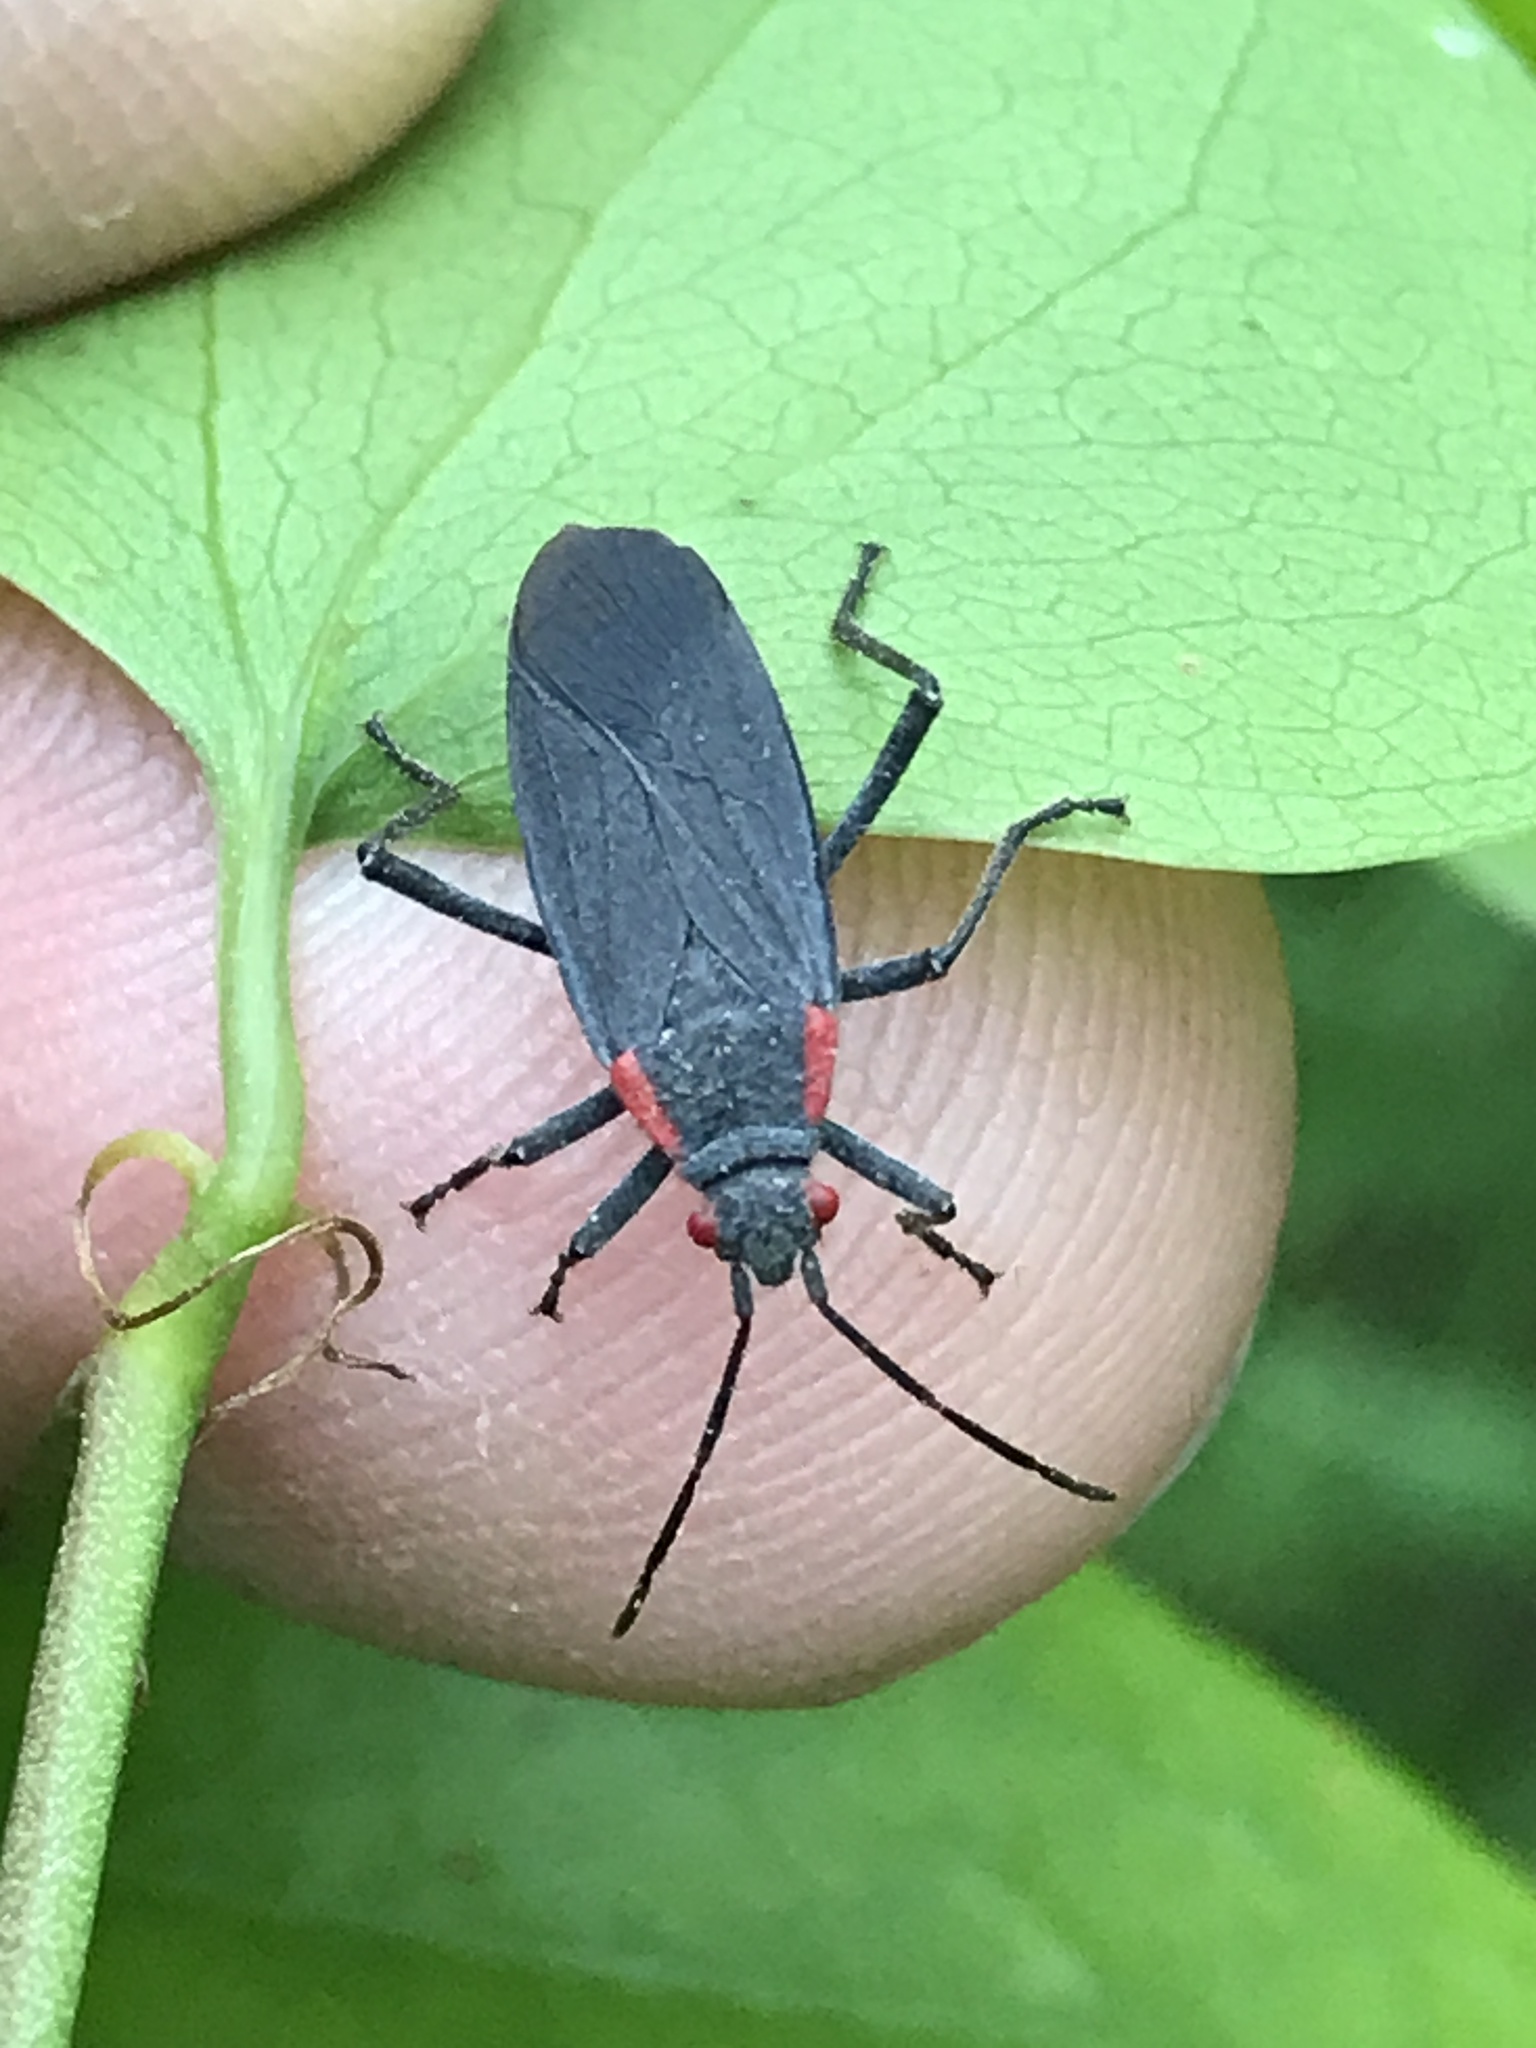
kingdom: Animalia
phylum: Arthropoda
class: Insecta
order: Hemiptera
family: Rhopalidae
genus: Jadera
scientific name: Jadera haematoloma
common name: Red-shouldered bug
